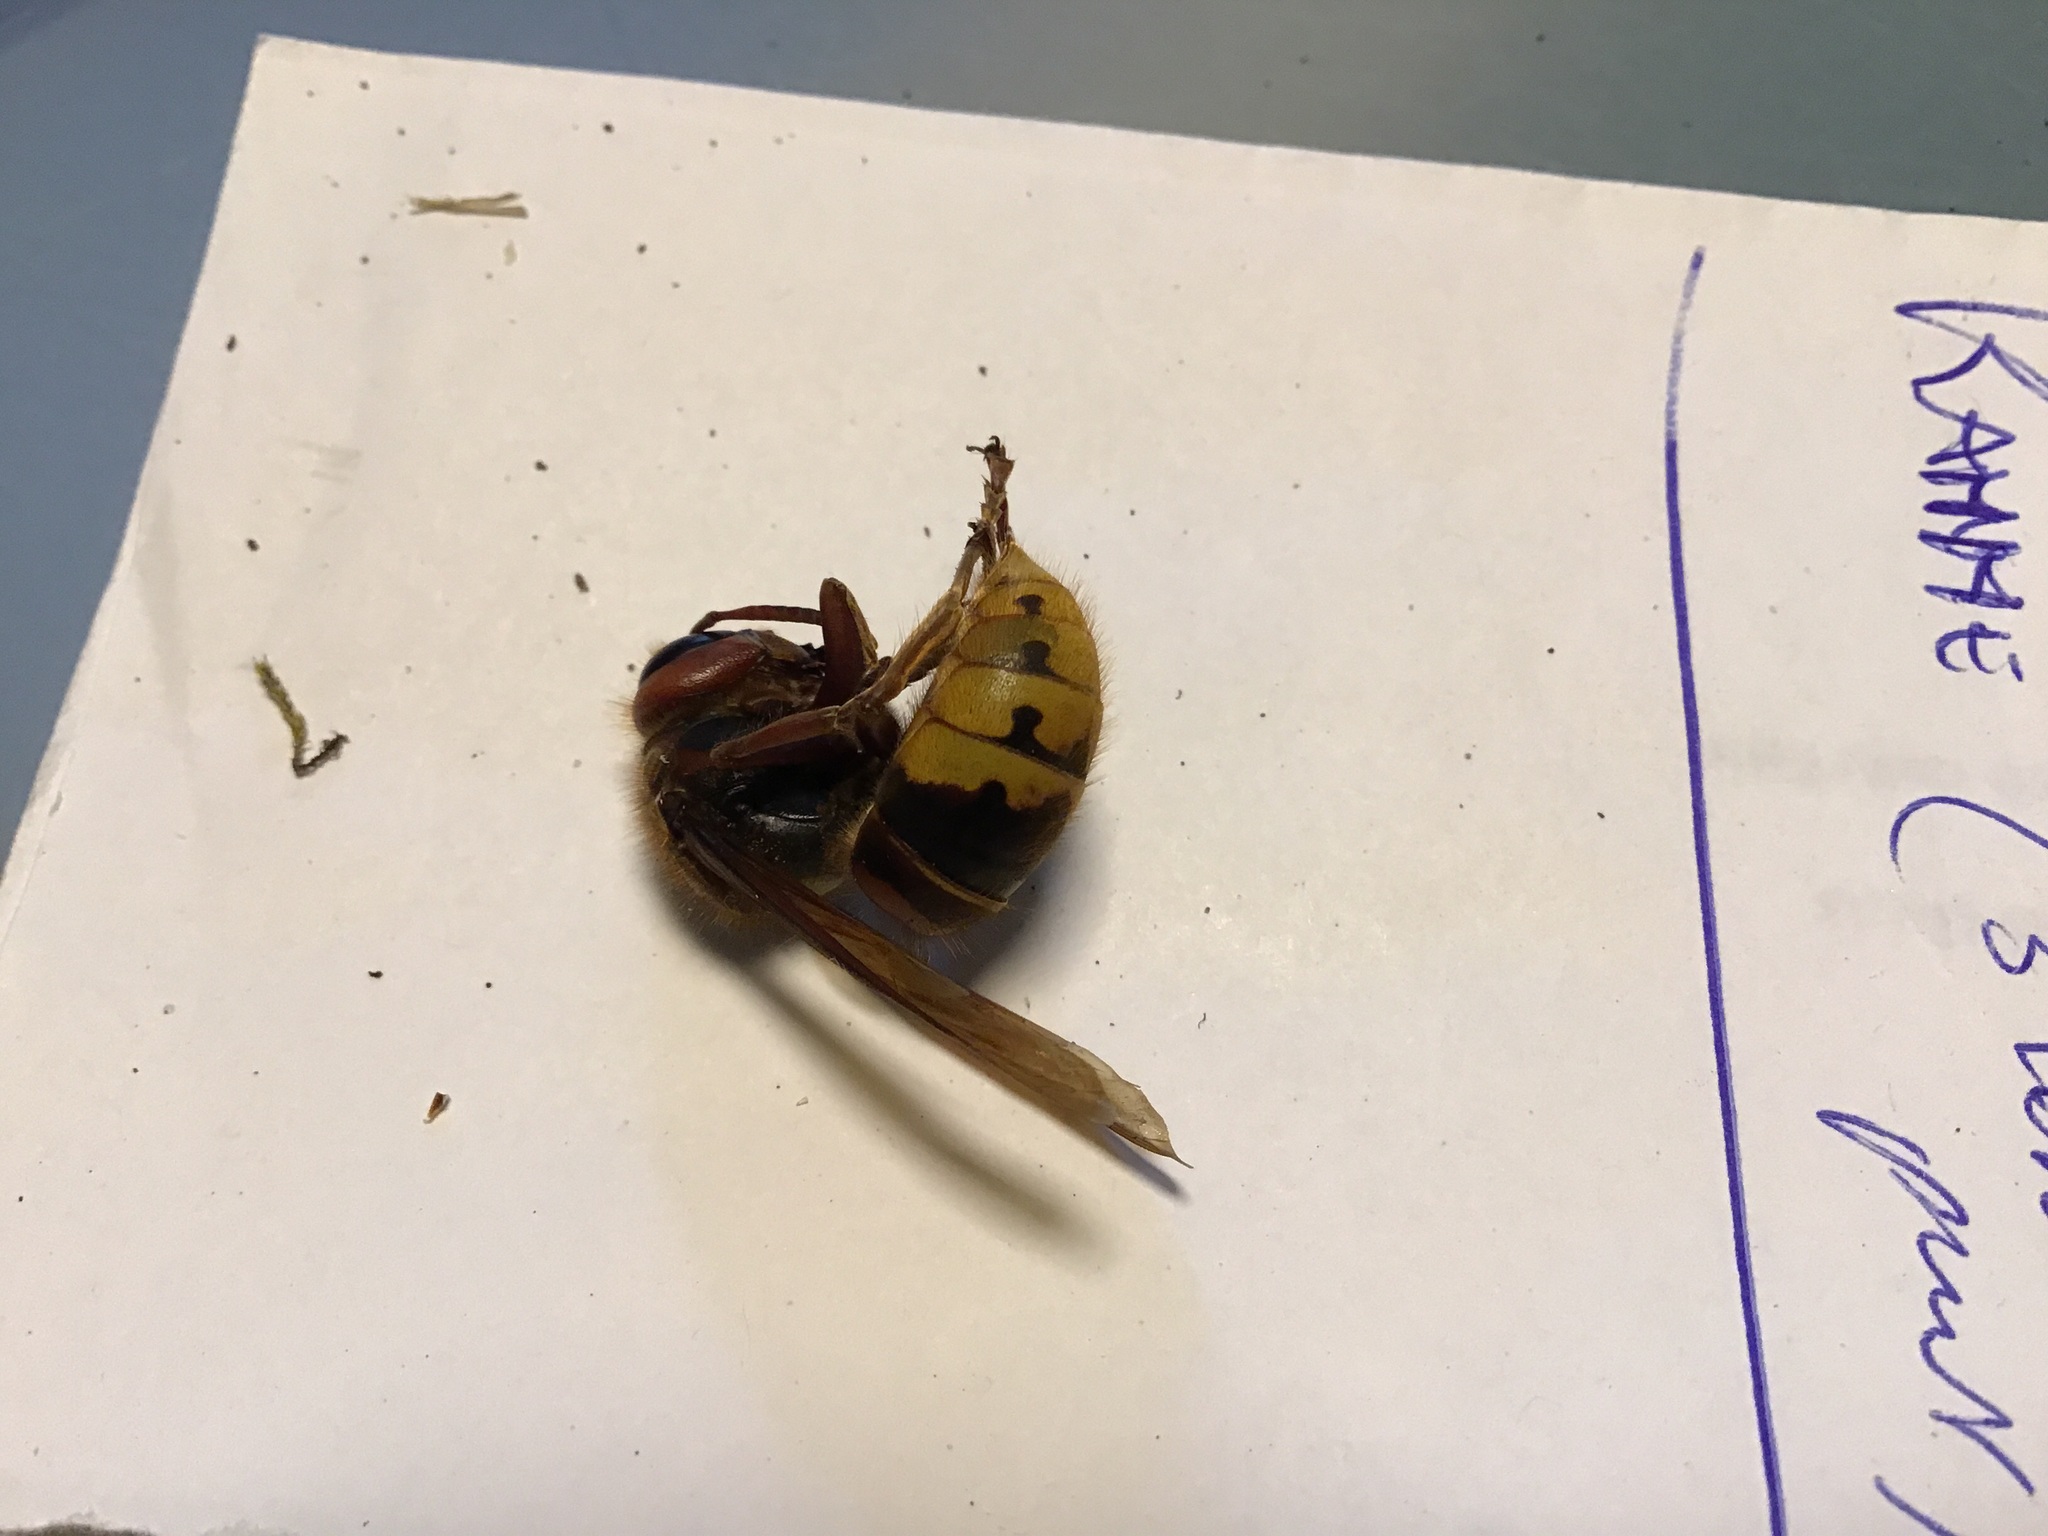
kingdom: Animalia
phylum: Arthropoda
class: Insecta
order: Hymenoptera
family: Vespidae
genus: Vespa
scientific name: Vespa crabro
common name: Hornet
